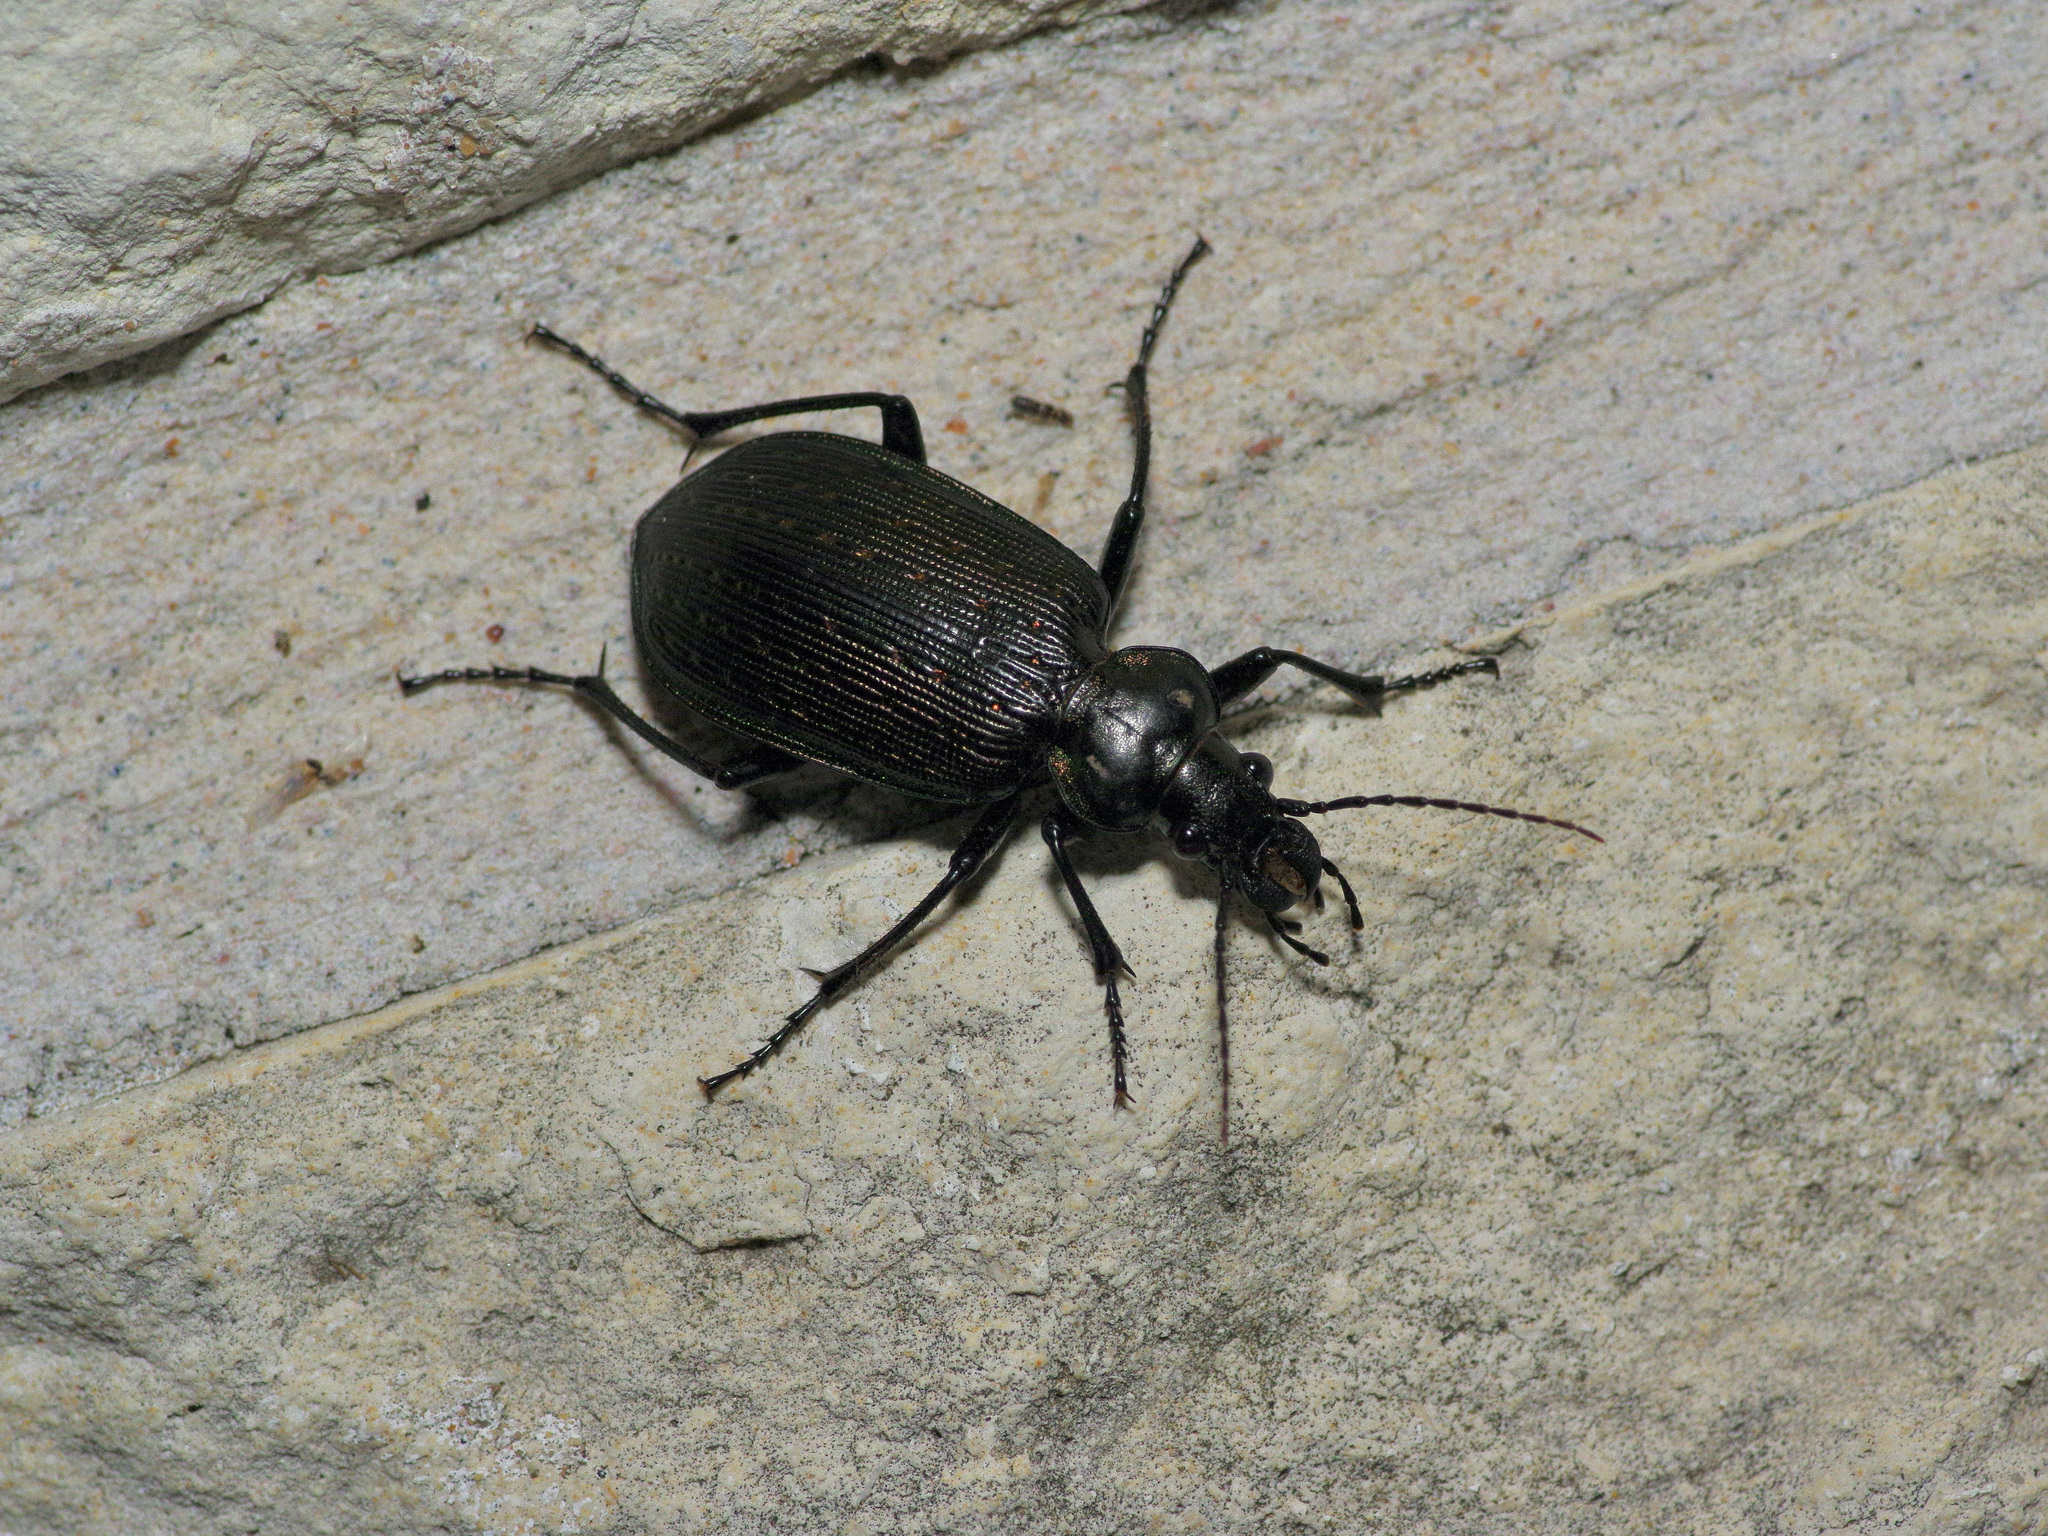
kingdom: Animalia
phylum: Arthropoda
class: Insecta
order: Coleoptera
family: Carabidae
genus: Calosoma
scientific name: Calosoma sayi
